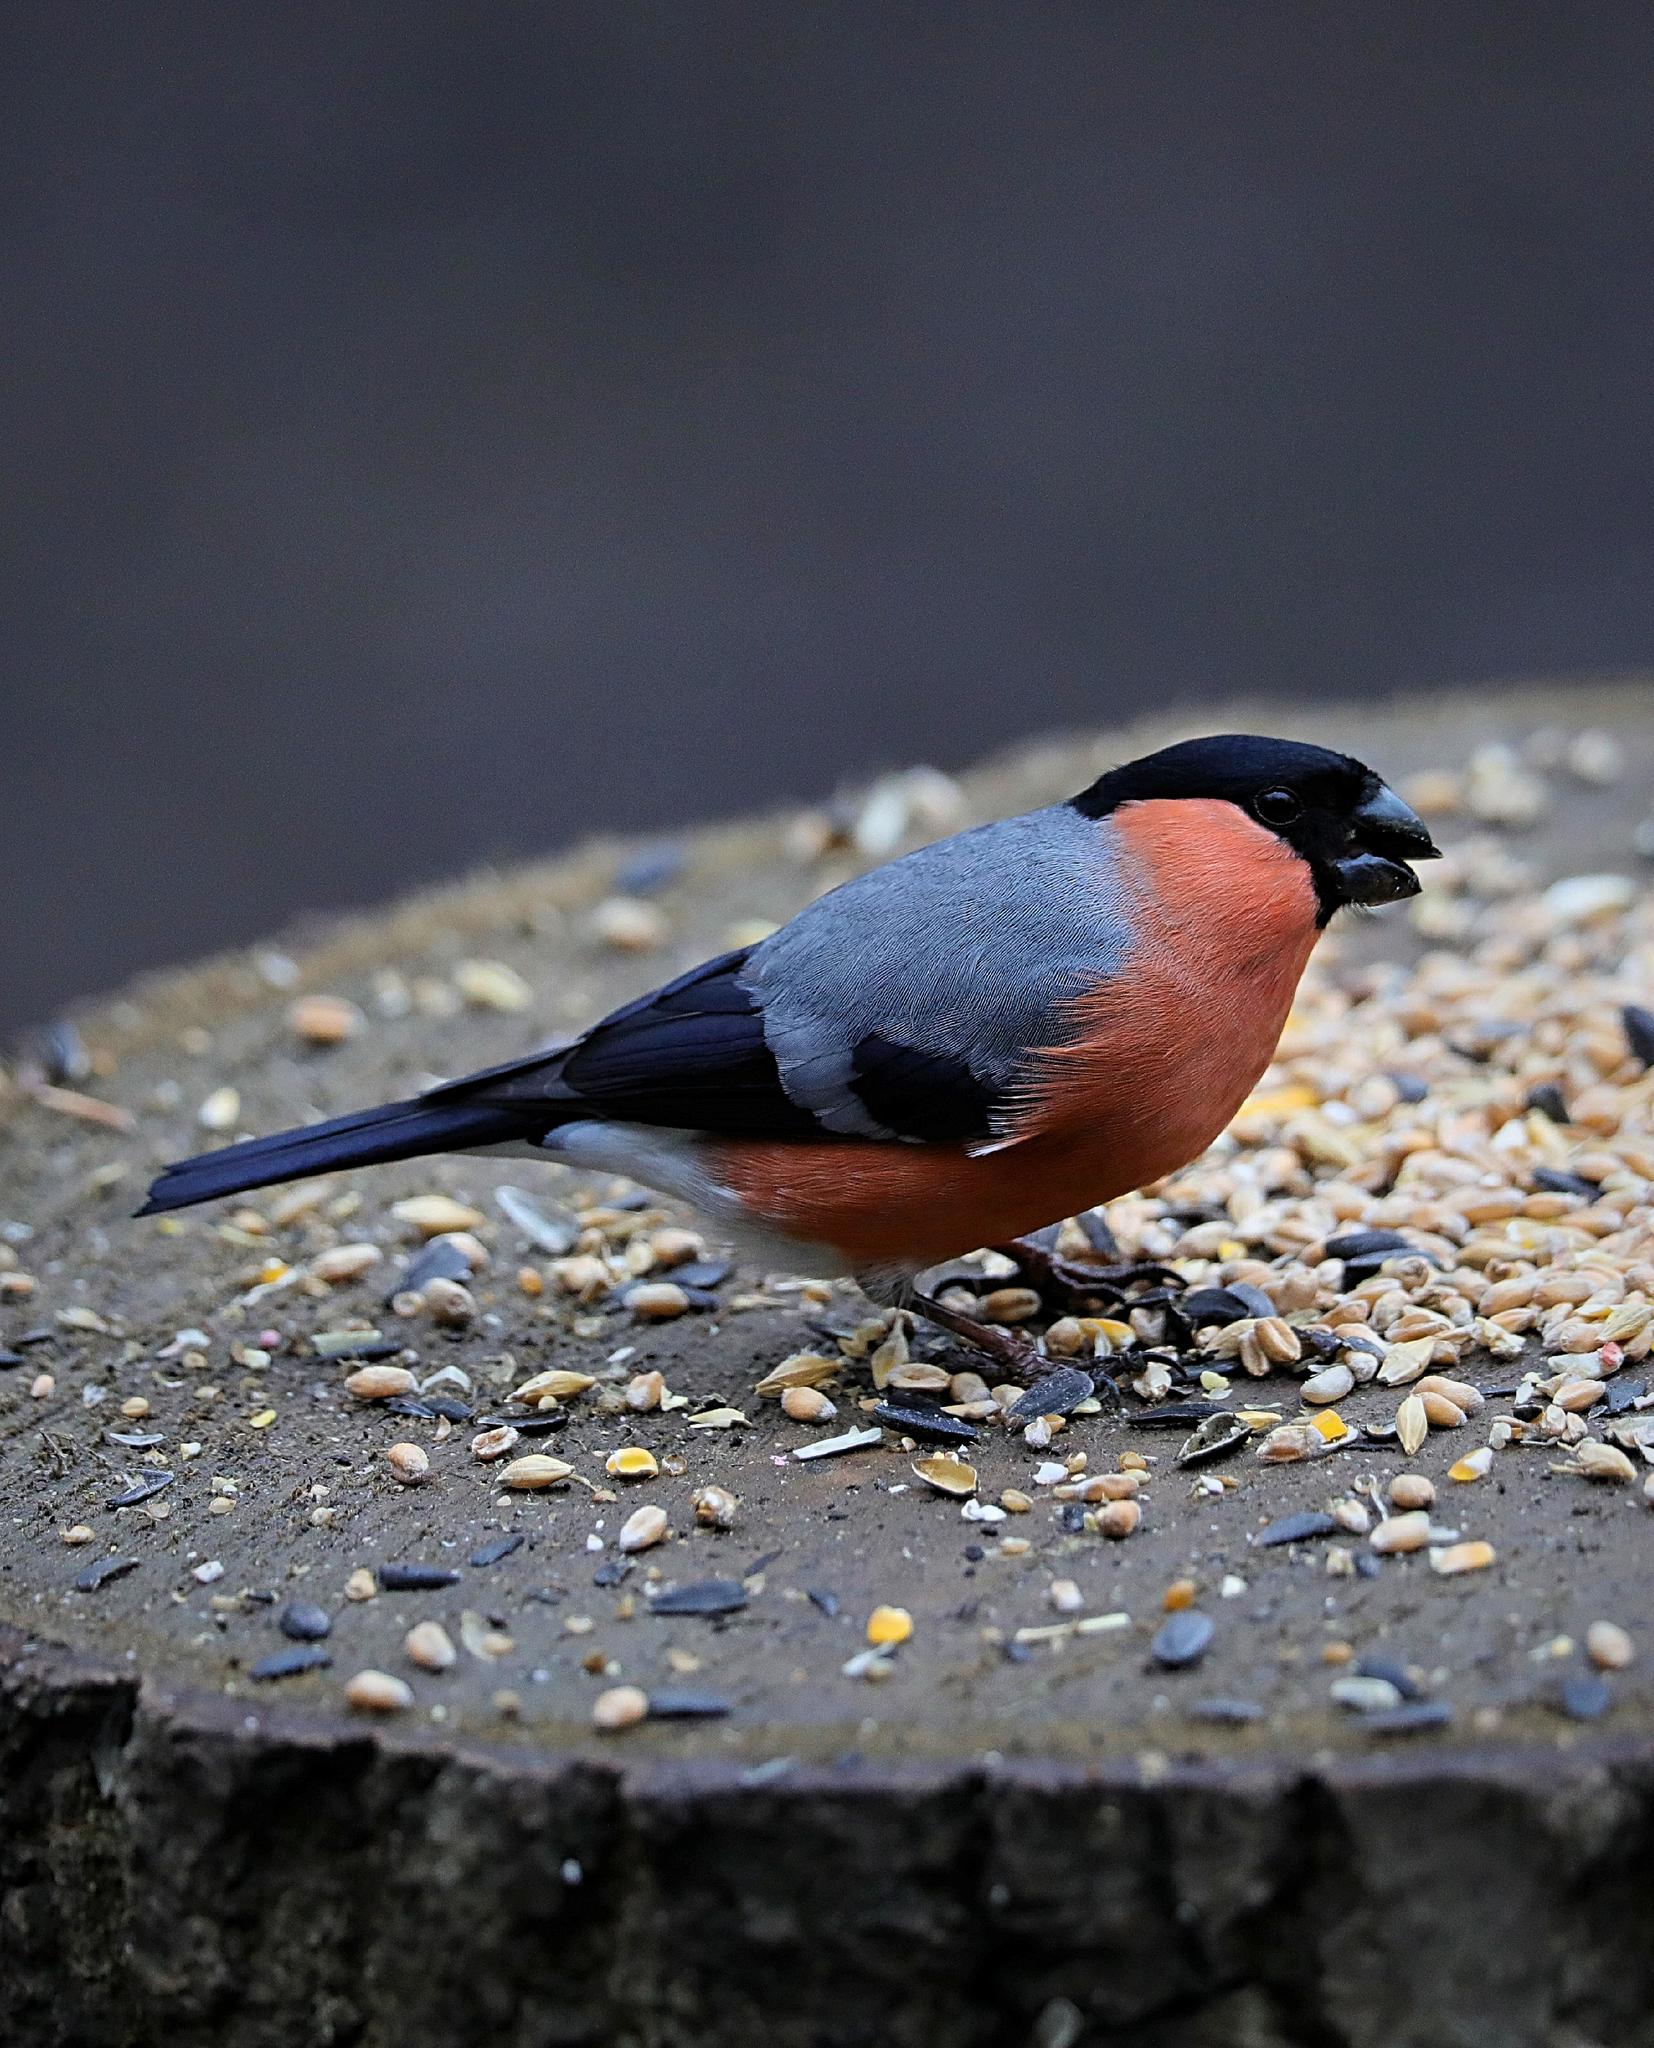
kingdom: Animalia
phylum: Chordata
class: Aves
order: Passeriformes
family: Fringillidae
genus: Pyrrhula
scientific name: Pyrrhula pyrrhula
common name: Eurasian bullfinch
